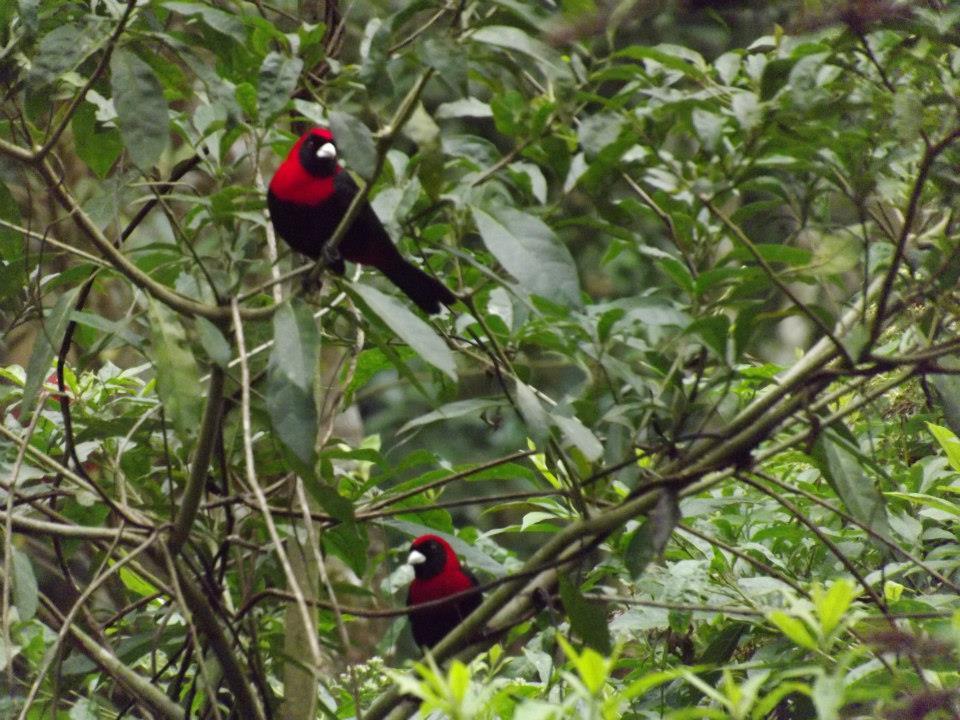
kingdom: Animalia
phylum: Chordata
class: Aves
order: Passeriformes
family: Thraupidae
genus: Ramphocelus
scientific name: Ramphocelus sanguinolentus
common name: Crimson-collared tanager
